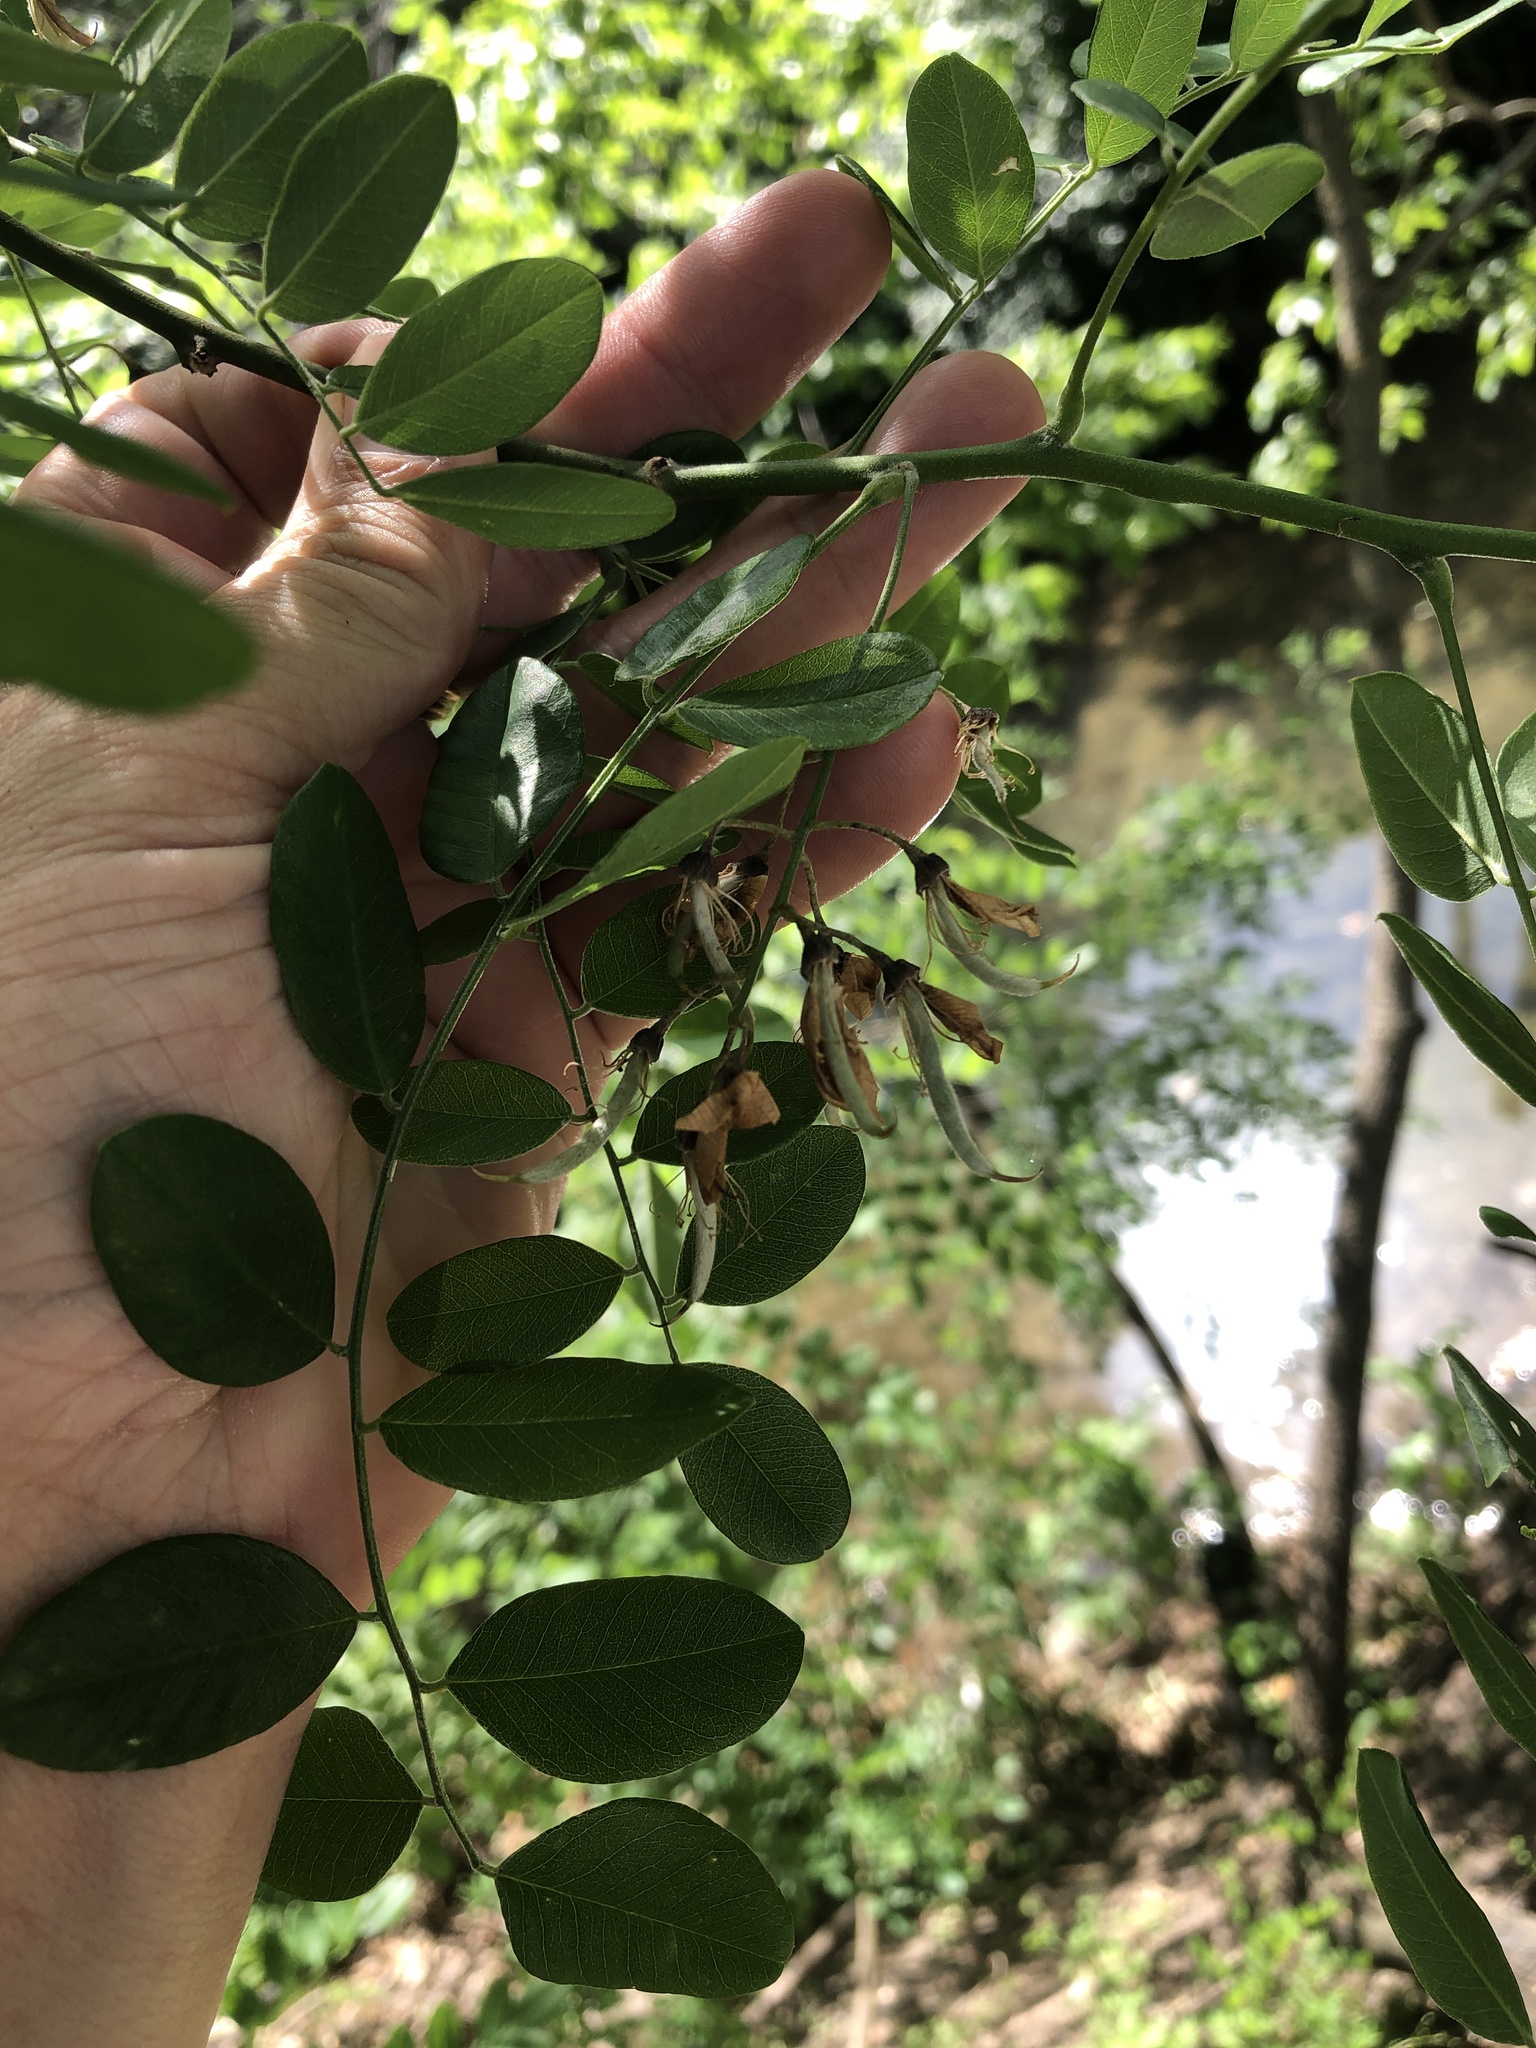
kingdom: Plantae
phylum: Tracheophyta
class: Magnoliopsida
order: Fabales
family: Fabaceae
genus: Styphnolobium
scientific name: Styphnolobium affine
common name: Texas sophora
